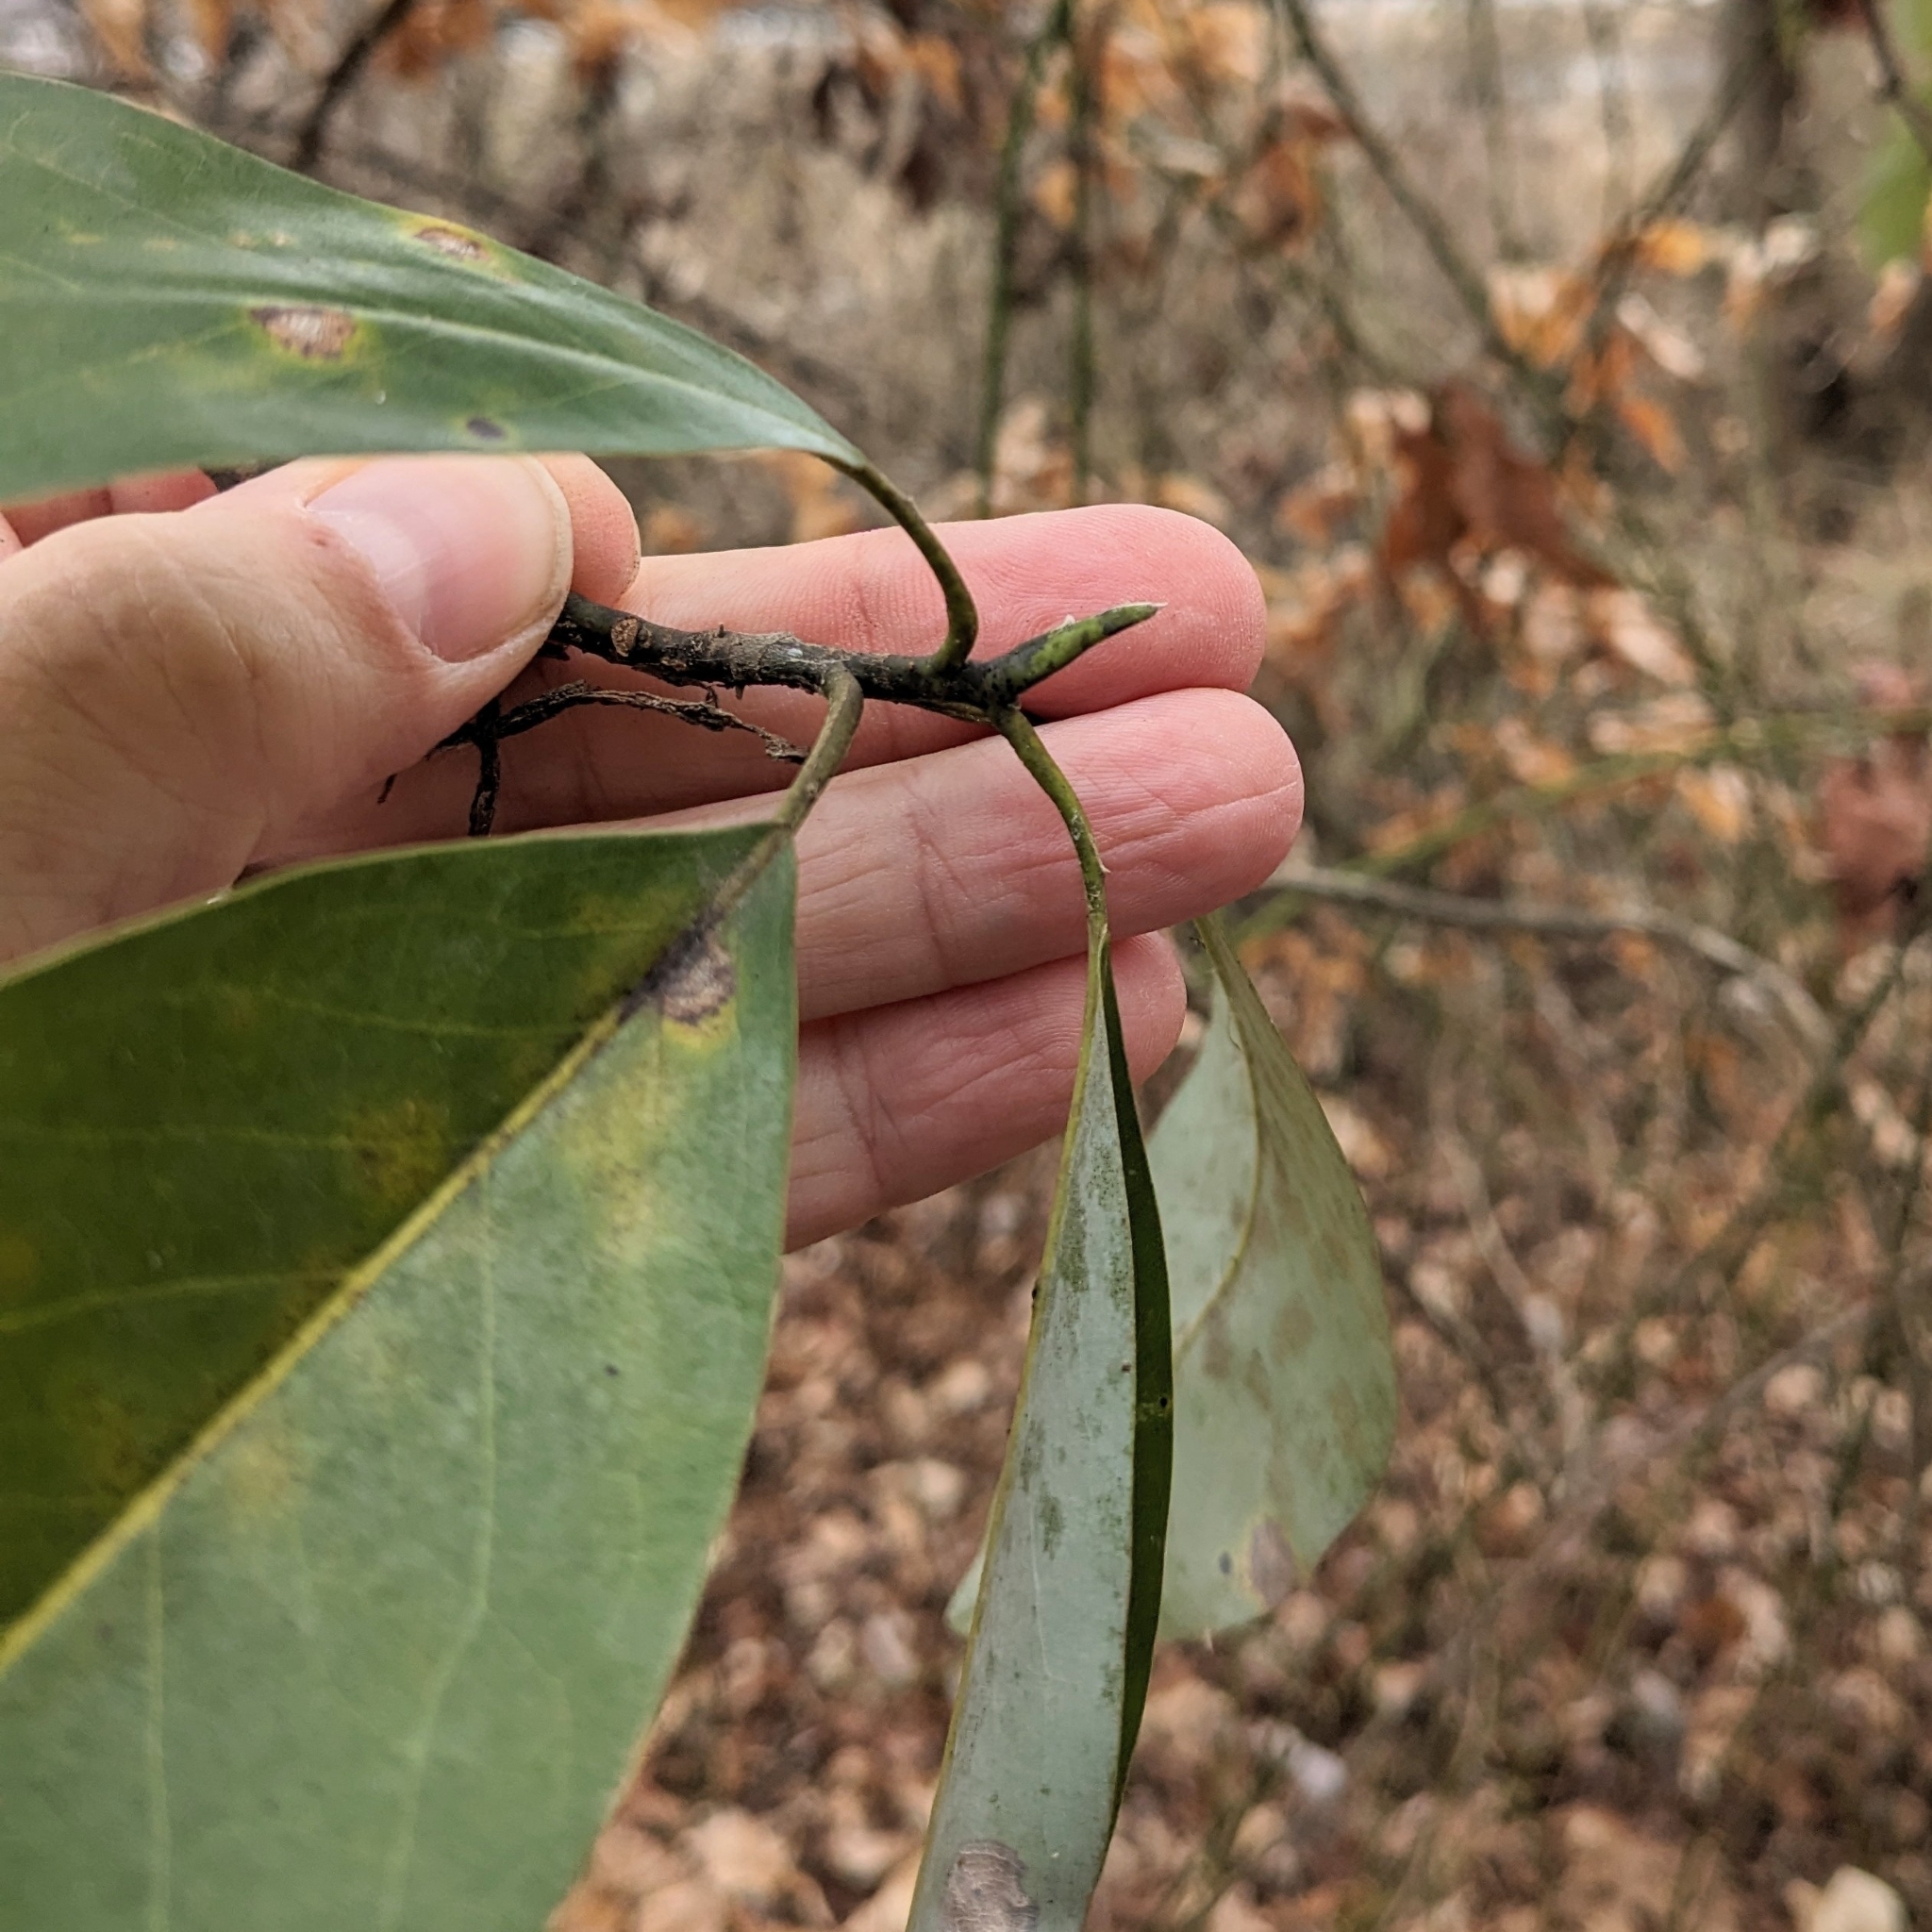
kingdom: Plantae
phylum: Tracheophyta
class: Magnoliopsida
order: Magnoliales
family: Magnoliaceae
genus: Magnolia
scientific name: Magnolia virginiana
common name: Swamp bay
